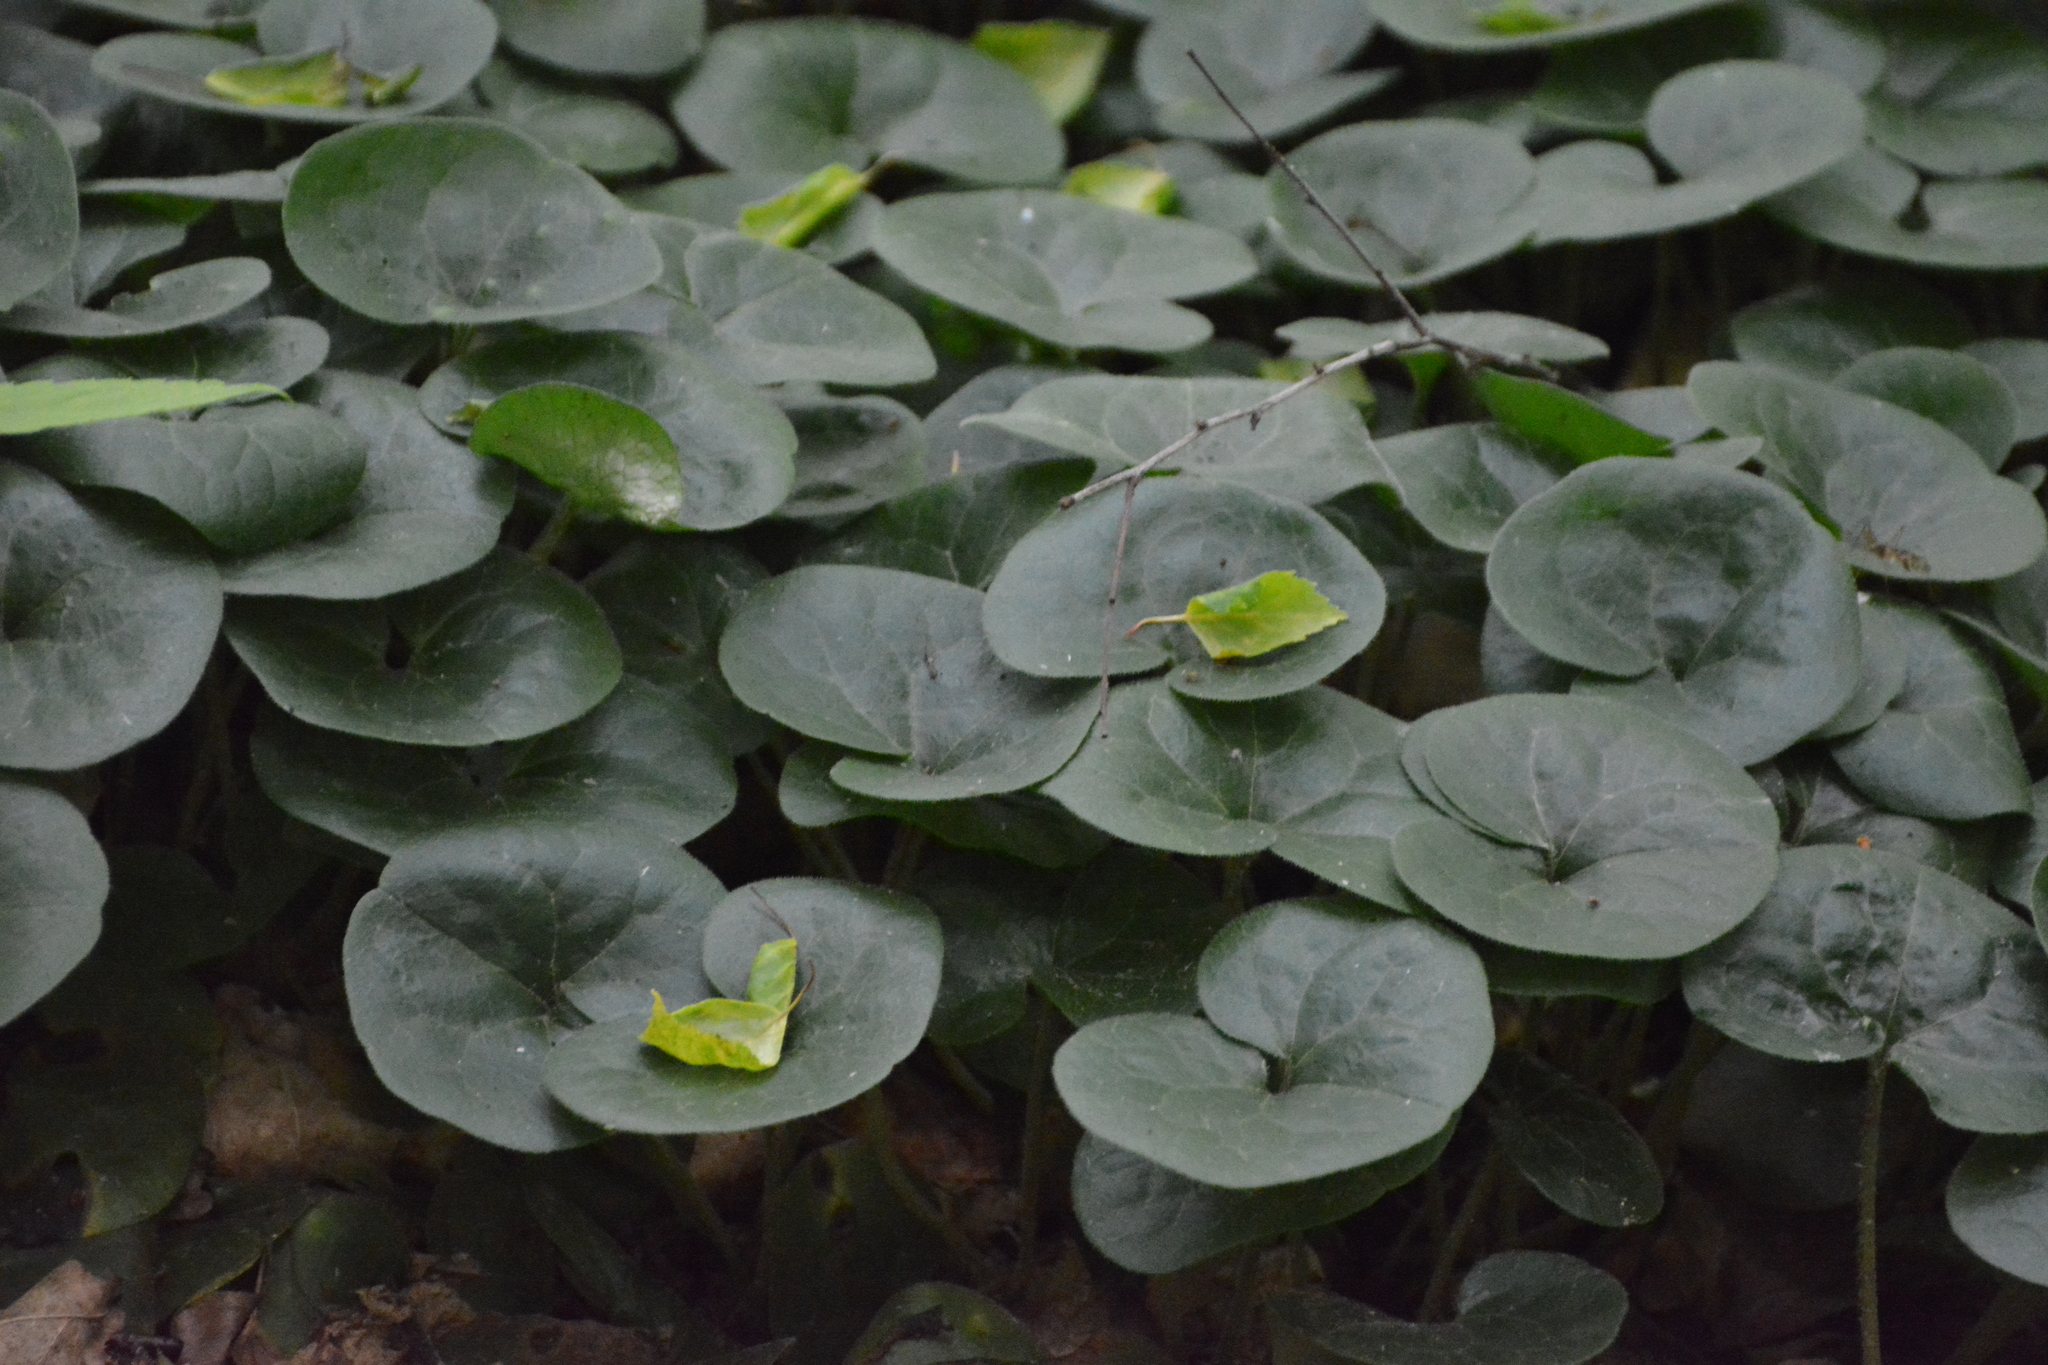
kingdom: Plantae
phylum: Tracheophyta
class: Magnoliopsida
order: Piperales
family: Aristolochiaceae
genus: Asarum
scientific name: Asarum europaeum
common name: Asarabacca
